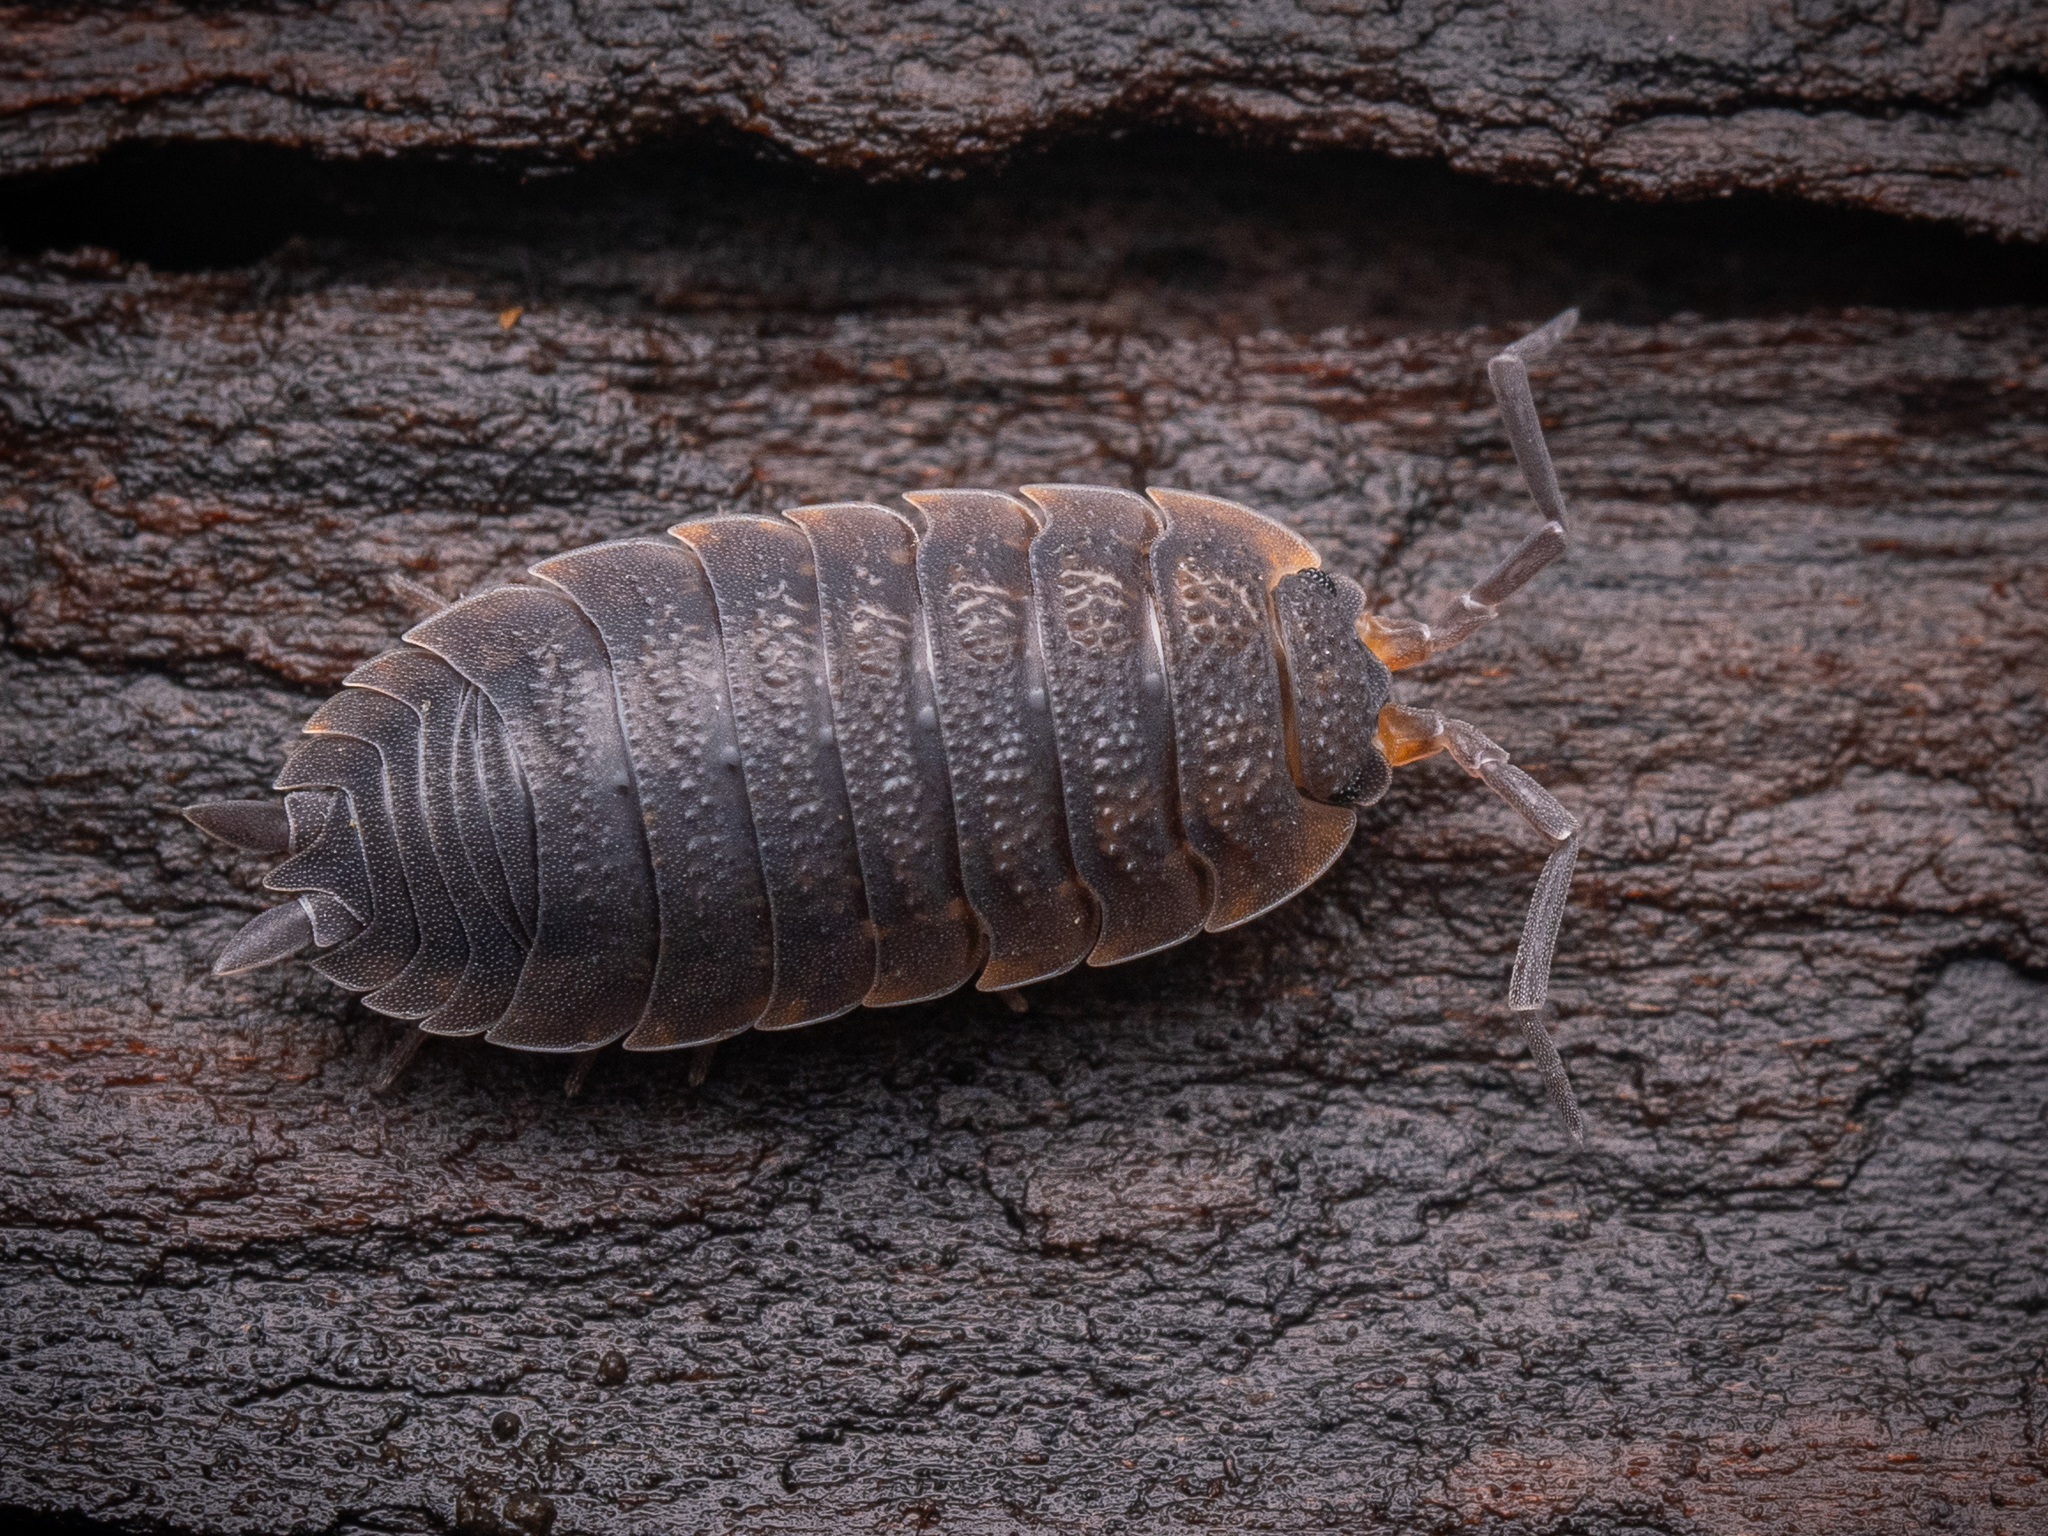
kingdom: Animalia
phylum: Arthropoda
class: Malacostraca
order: Isopoda
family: Porcellionidae
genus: Porcellio
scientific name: Porcellio scaber
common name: Common rough woodlouse
